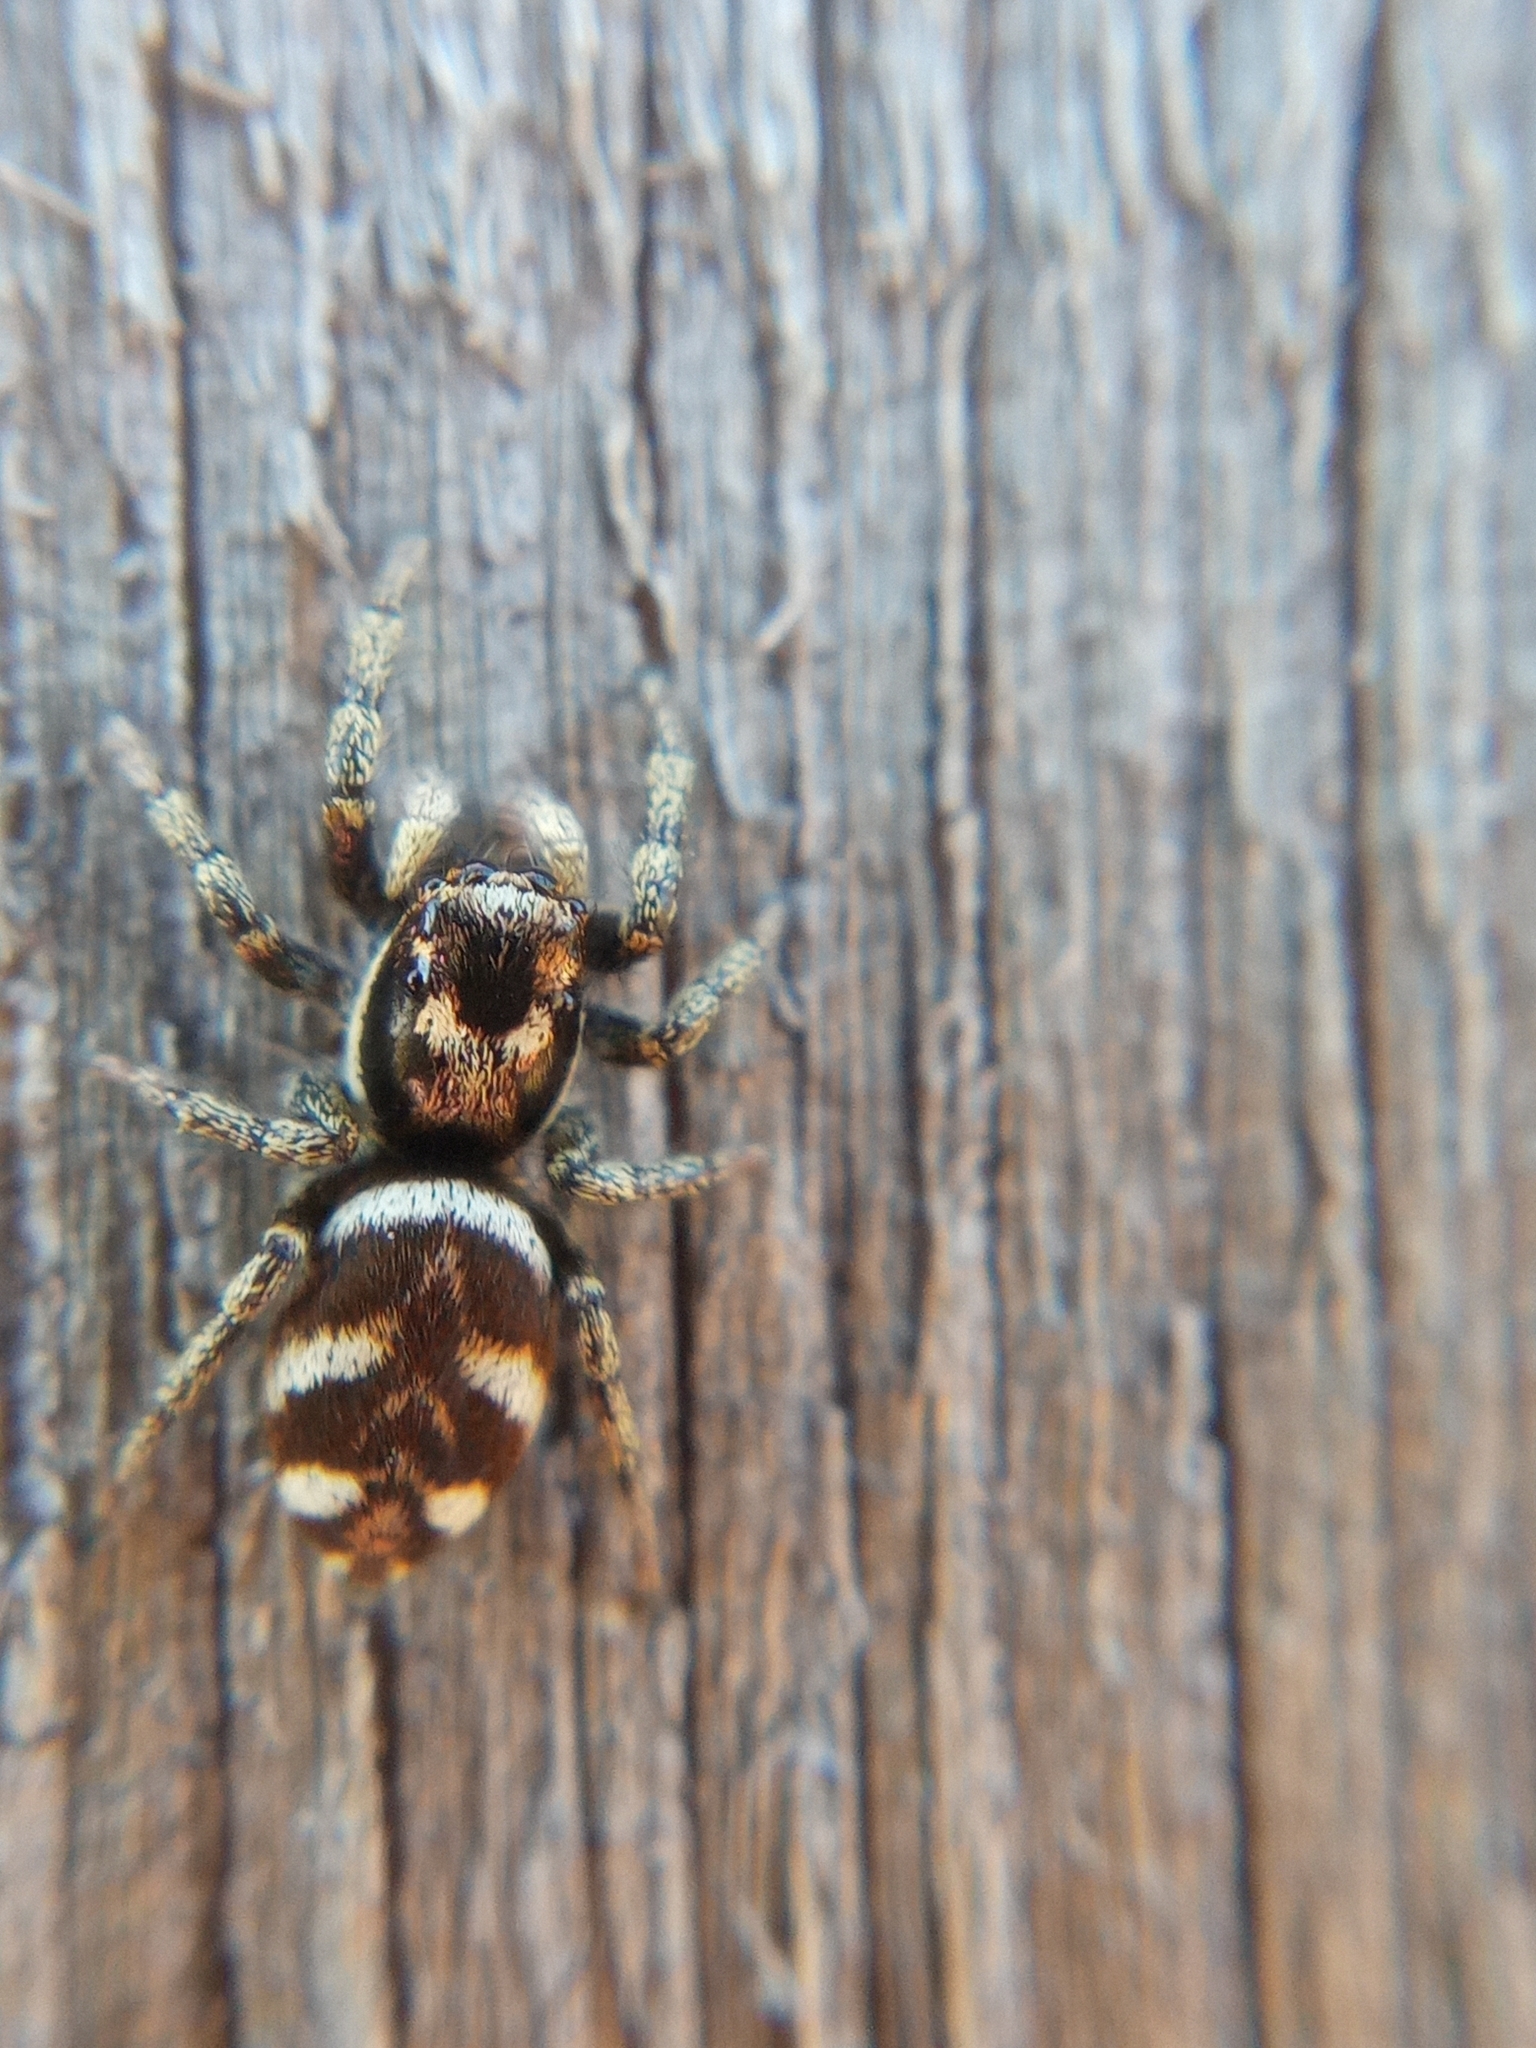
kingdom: Animalia
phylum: Arthropoda
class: Arachnida
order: Araneae
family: Salticidae
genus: Salticus
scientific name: Salticus scenicus
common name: Zebra jumper
